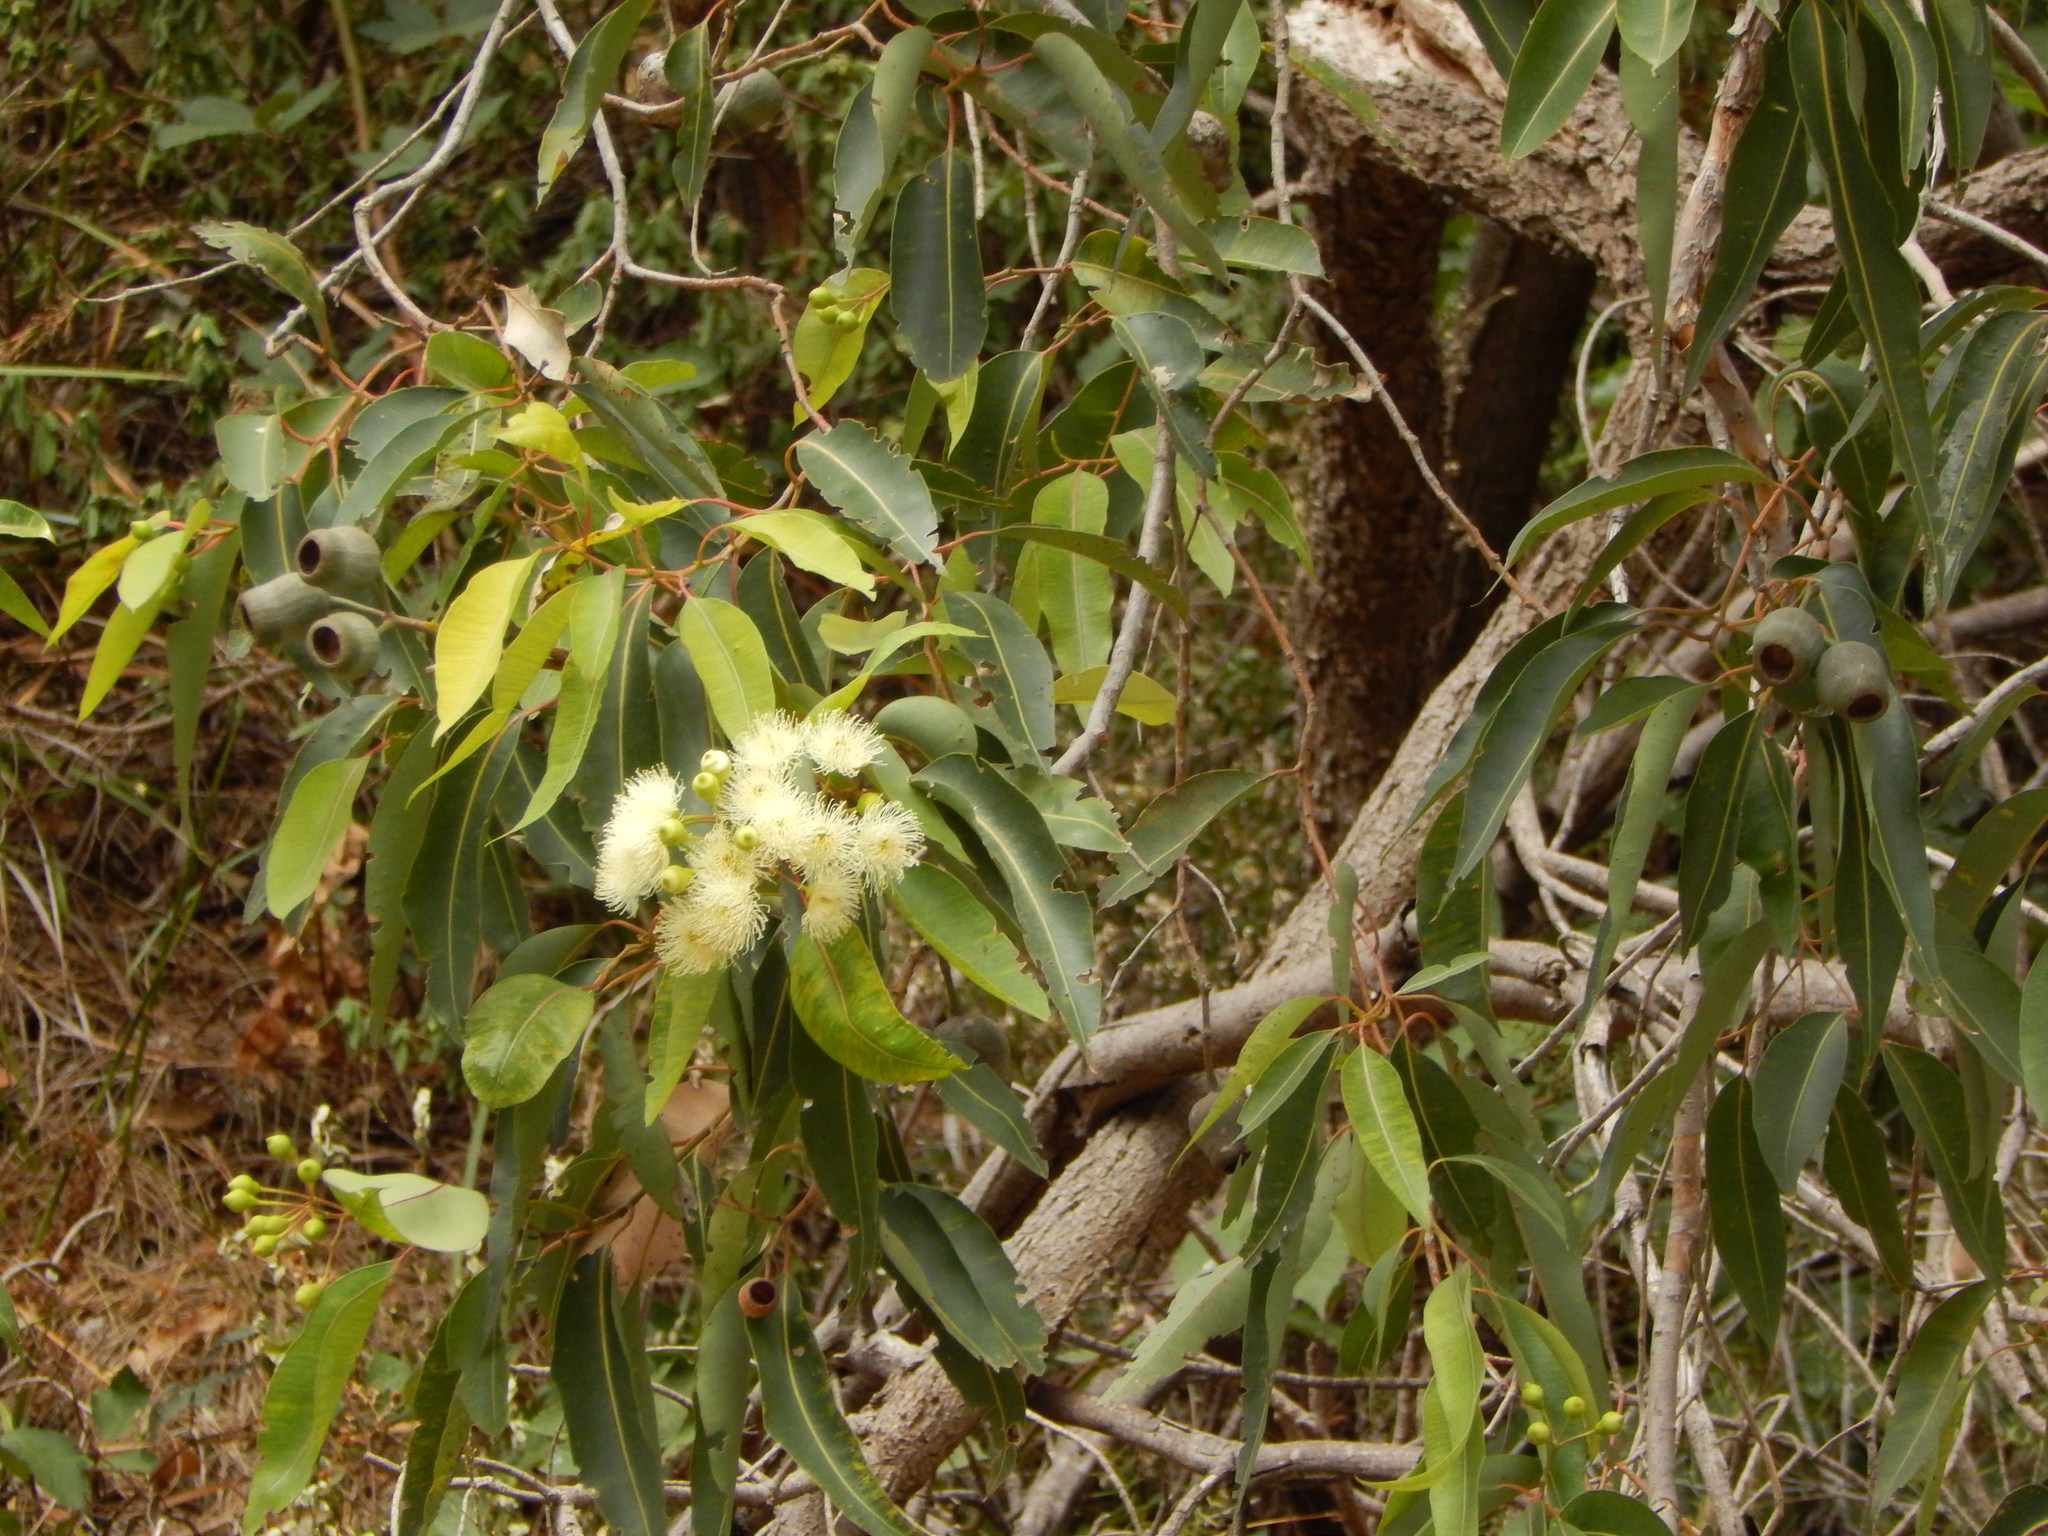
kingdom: Plantae
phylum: Tracheophyta
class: Magnoliopsida
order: Myrtales
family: Myrtaceae
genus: Corymbia
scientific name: Corymbia calophylla
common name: Marri
